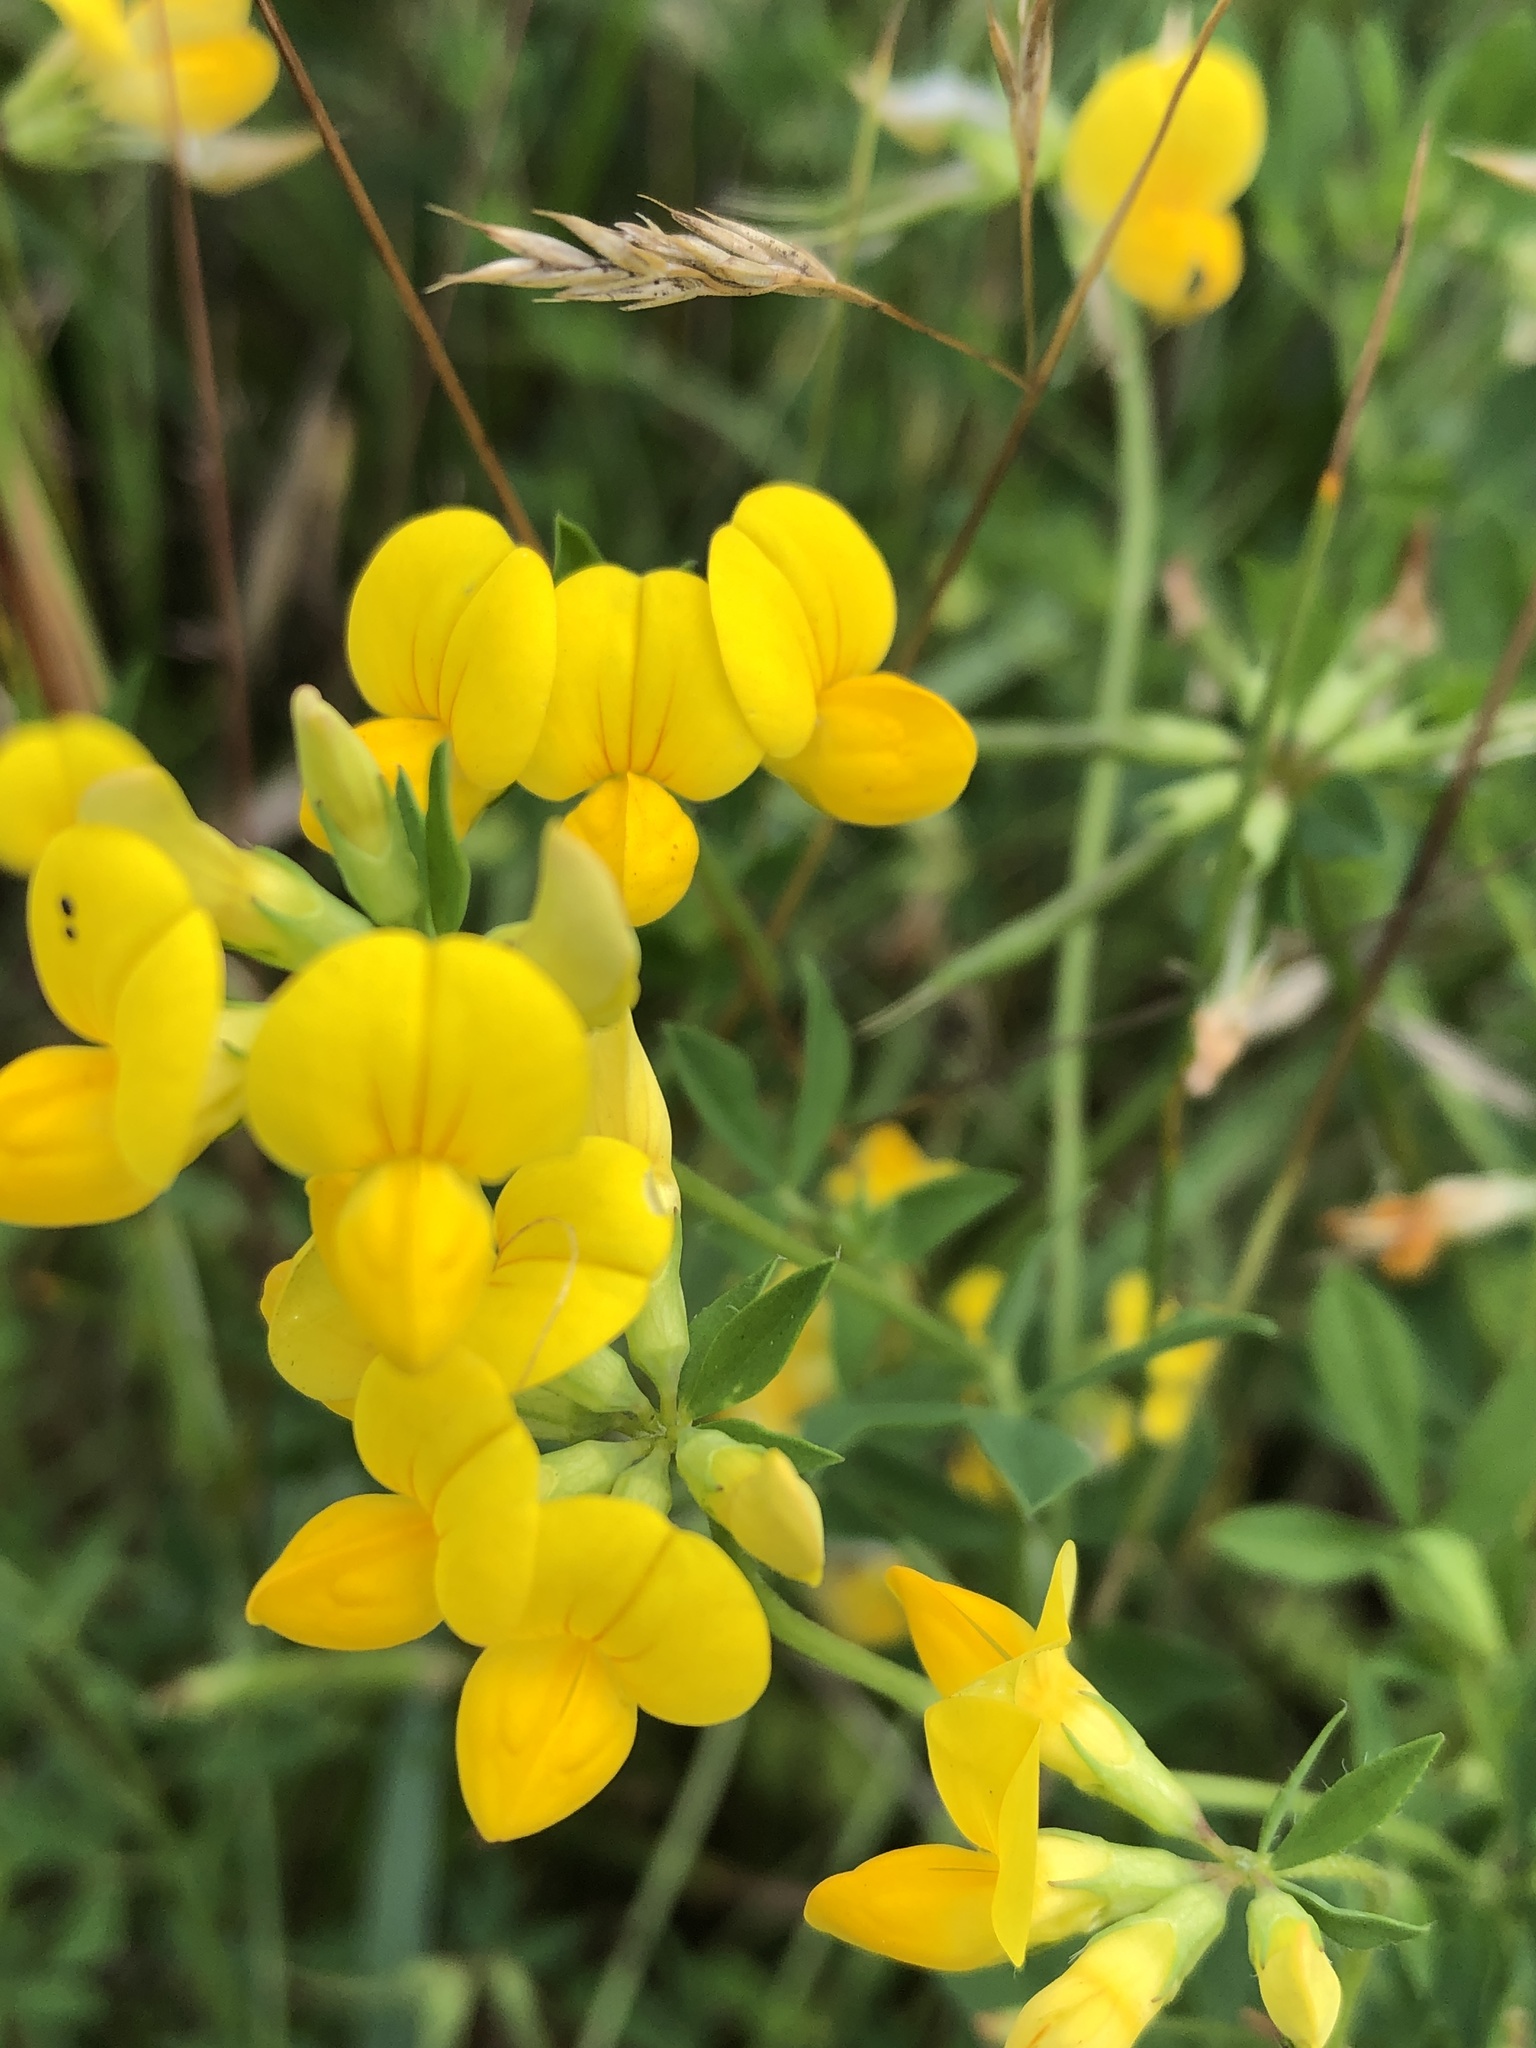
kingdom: Plantae
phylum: Tracheophyta
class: Magnoliopsida
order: Fabales
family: Fabaceae
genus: Lotus
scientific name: Lotus corniculatus
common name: Common bird's-foot-trefoil
